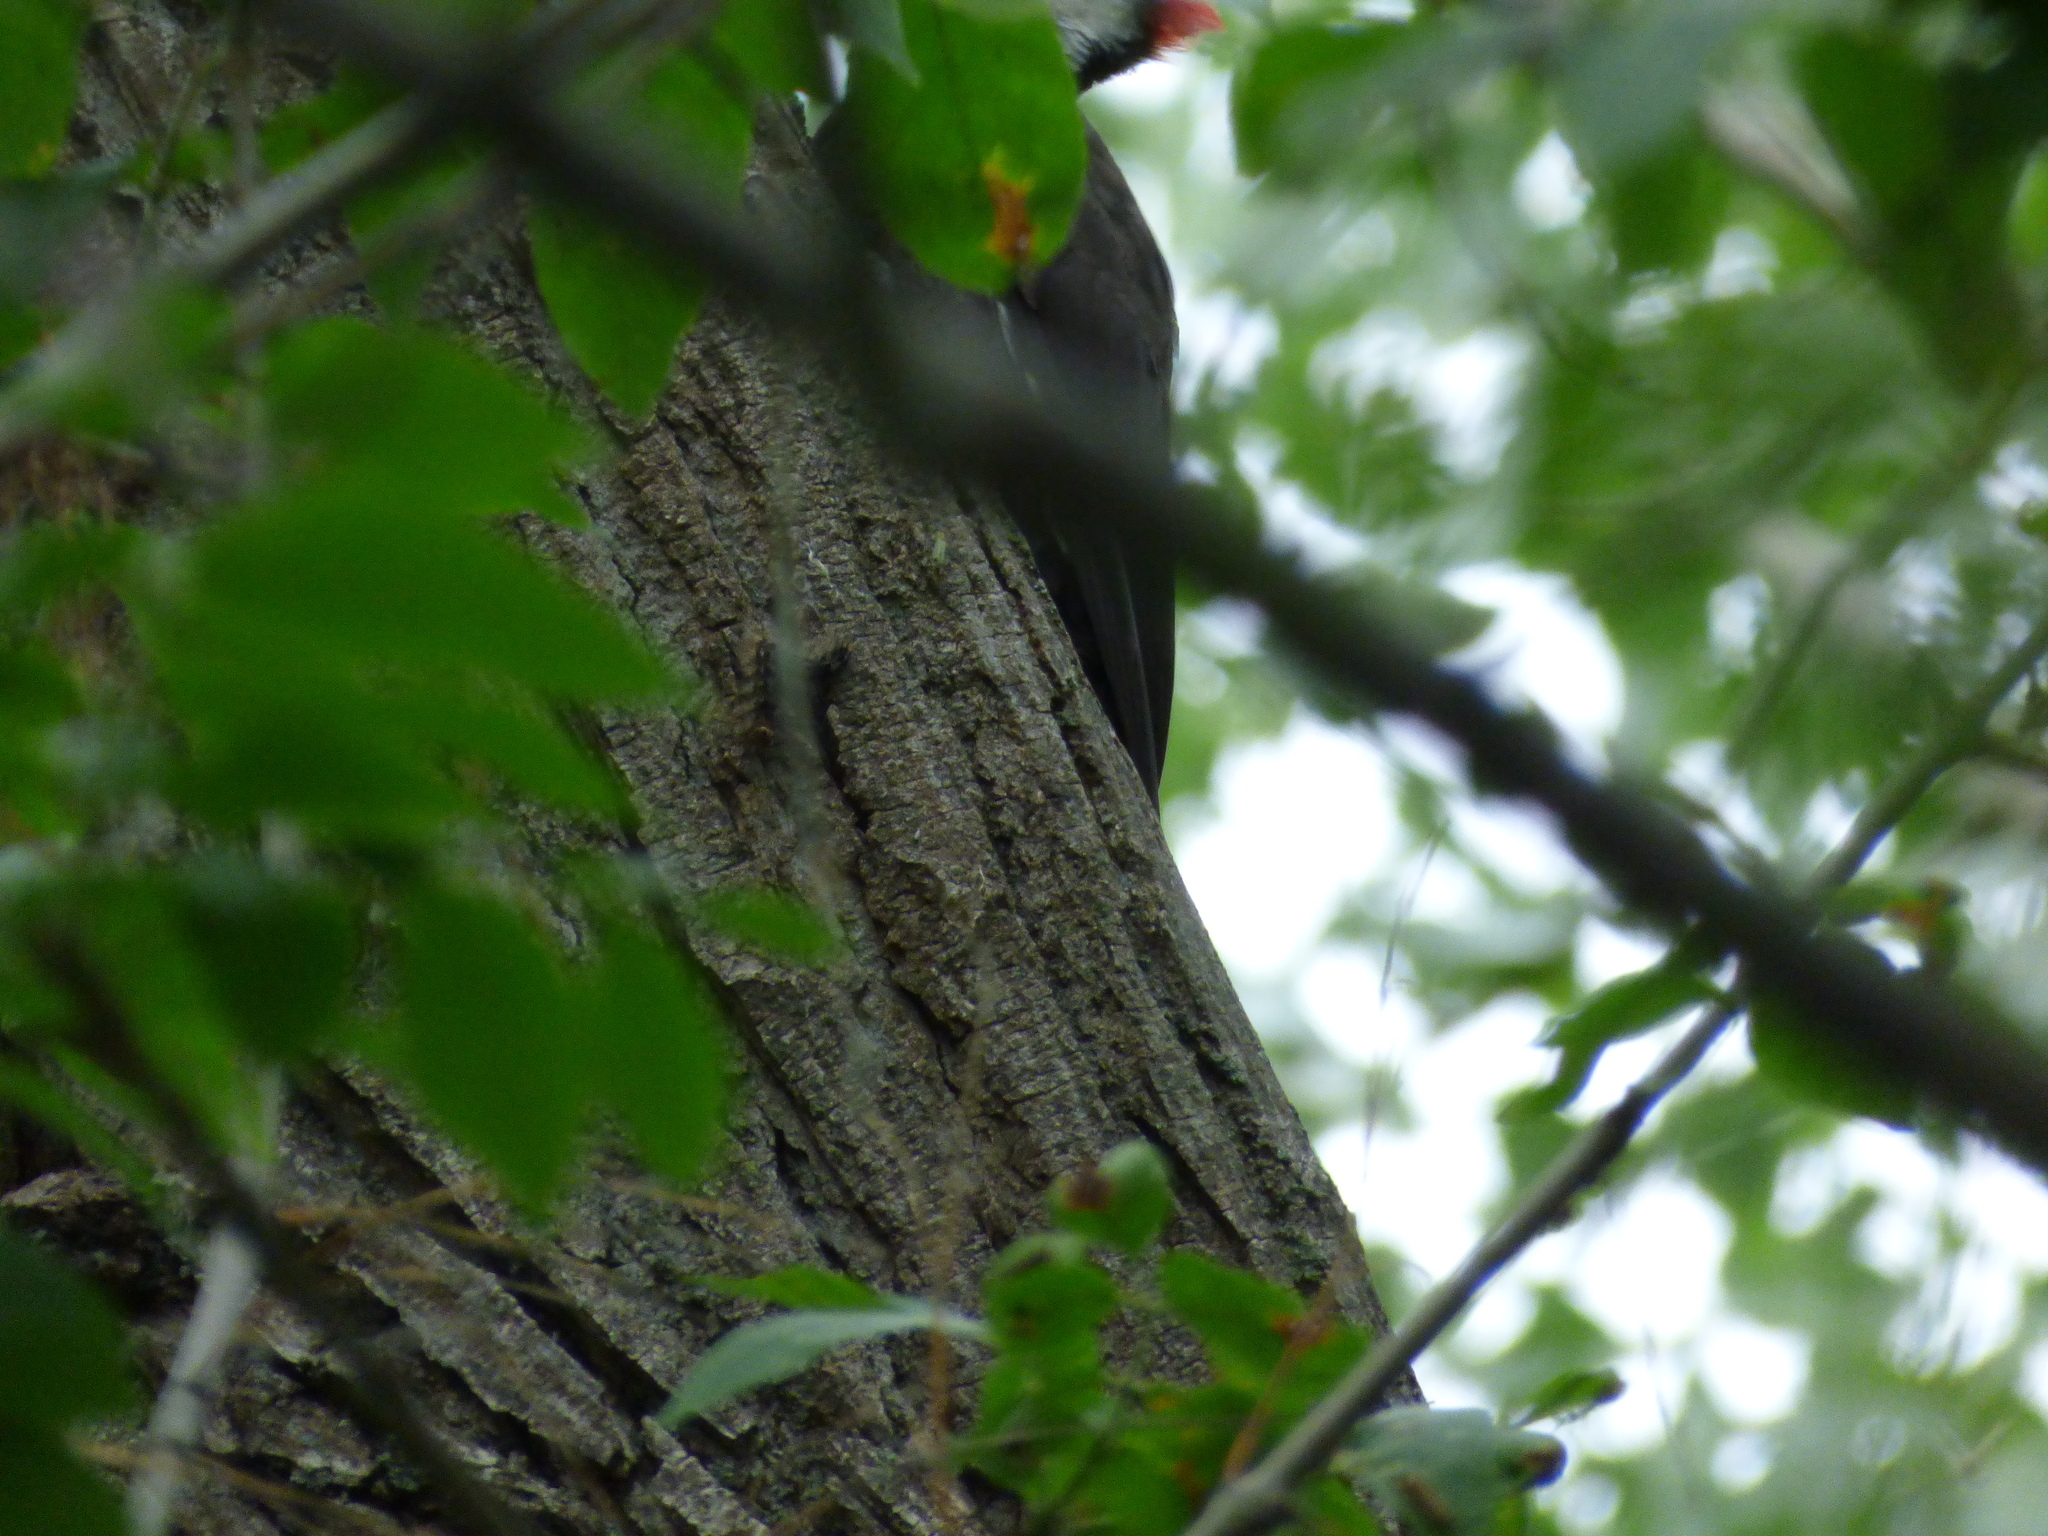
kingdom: Animalia
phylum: Chordata
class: Aves
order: Piciformes
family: Picidae
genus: Dryocopus
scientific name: Dryocopus pileatus
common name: Pileated woodpecker
